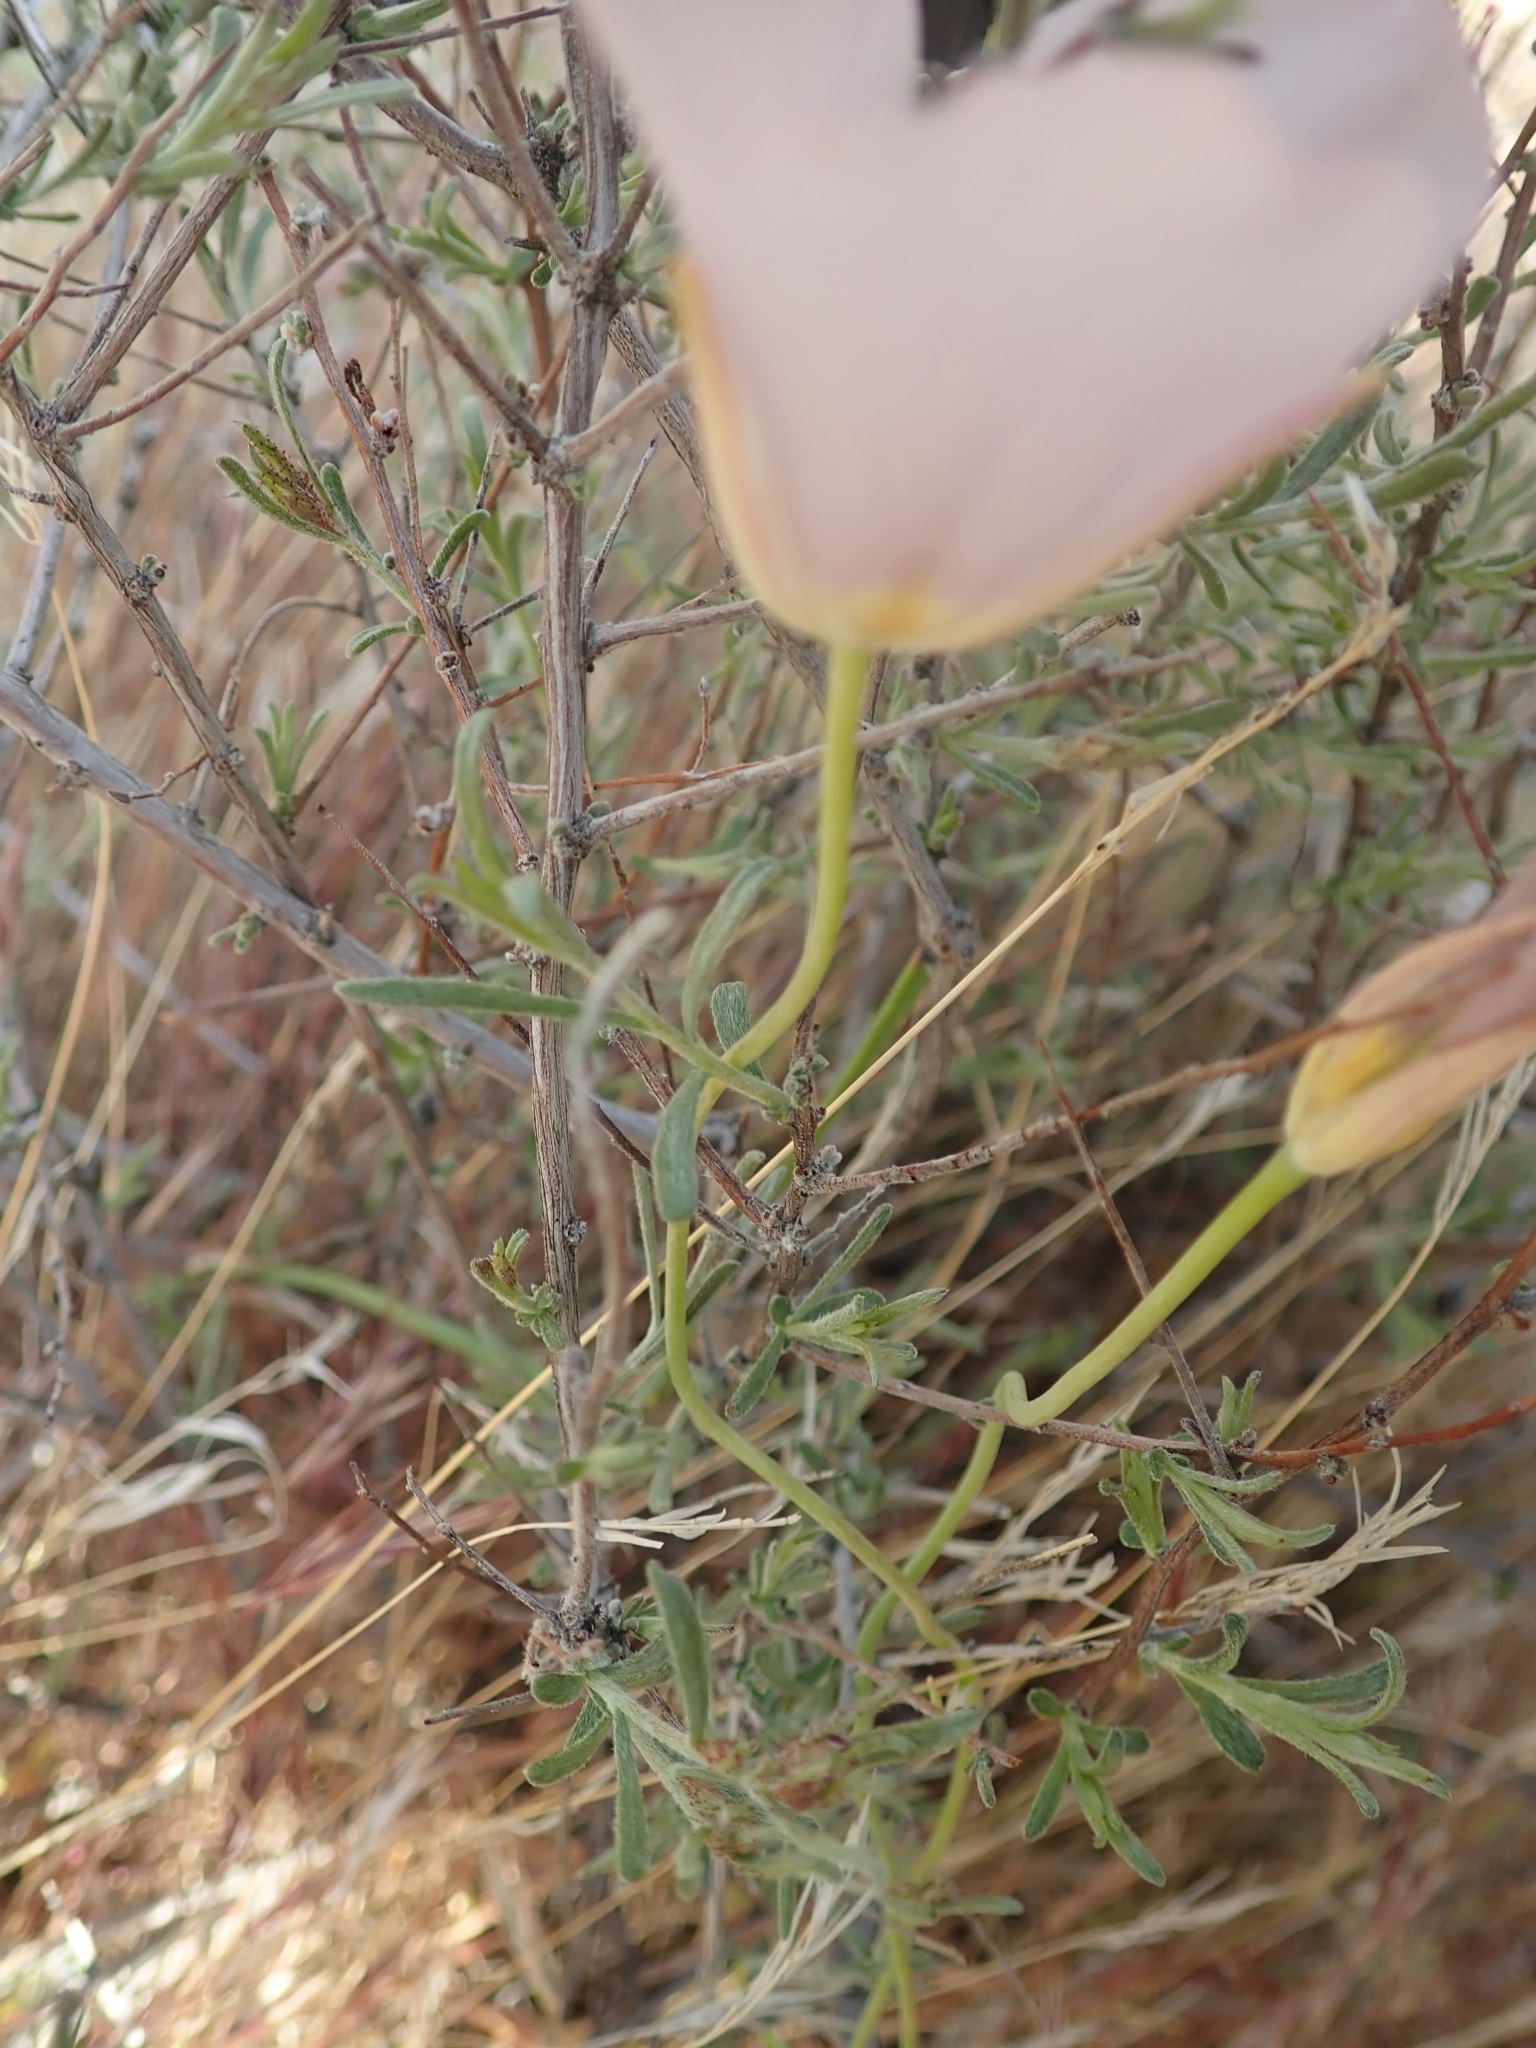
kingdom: Plantae
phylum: Tracheophyta
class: Liliopsida
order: Liliales
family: Liliaceae
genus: Calochortus
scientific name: Calochortus flexuosus
